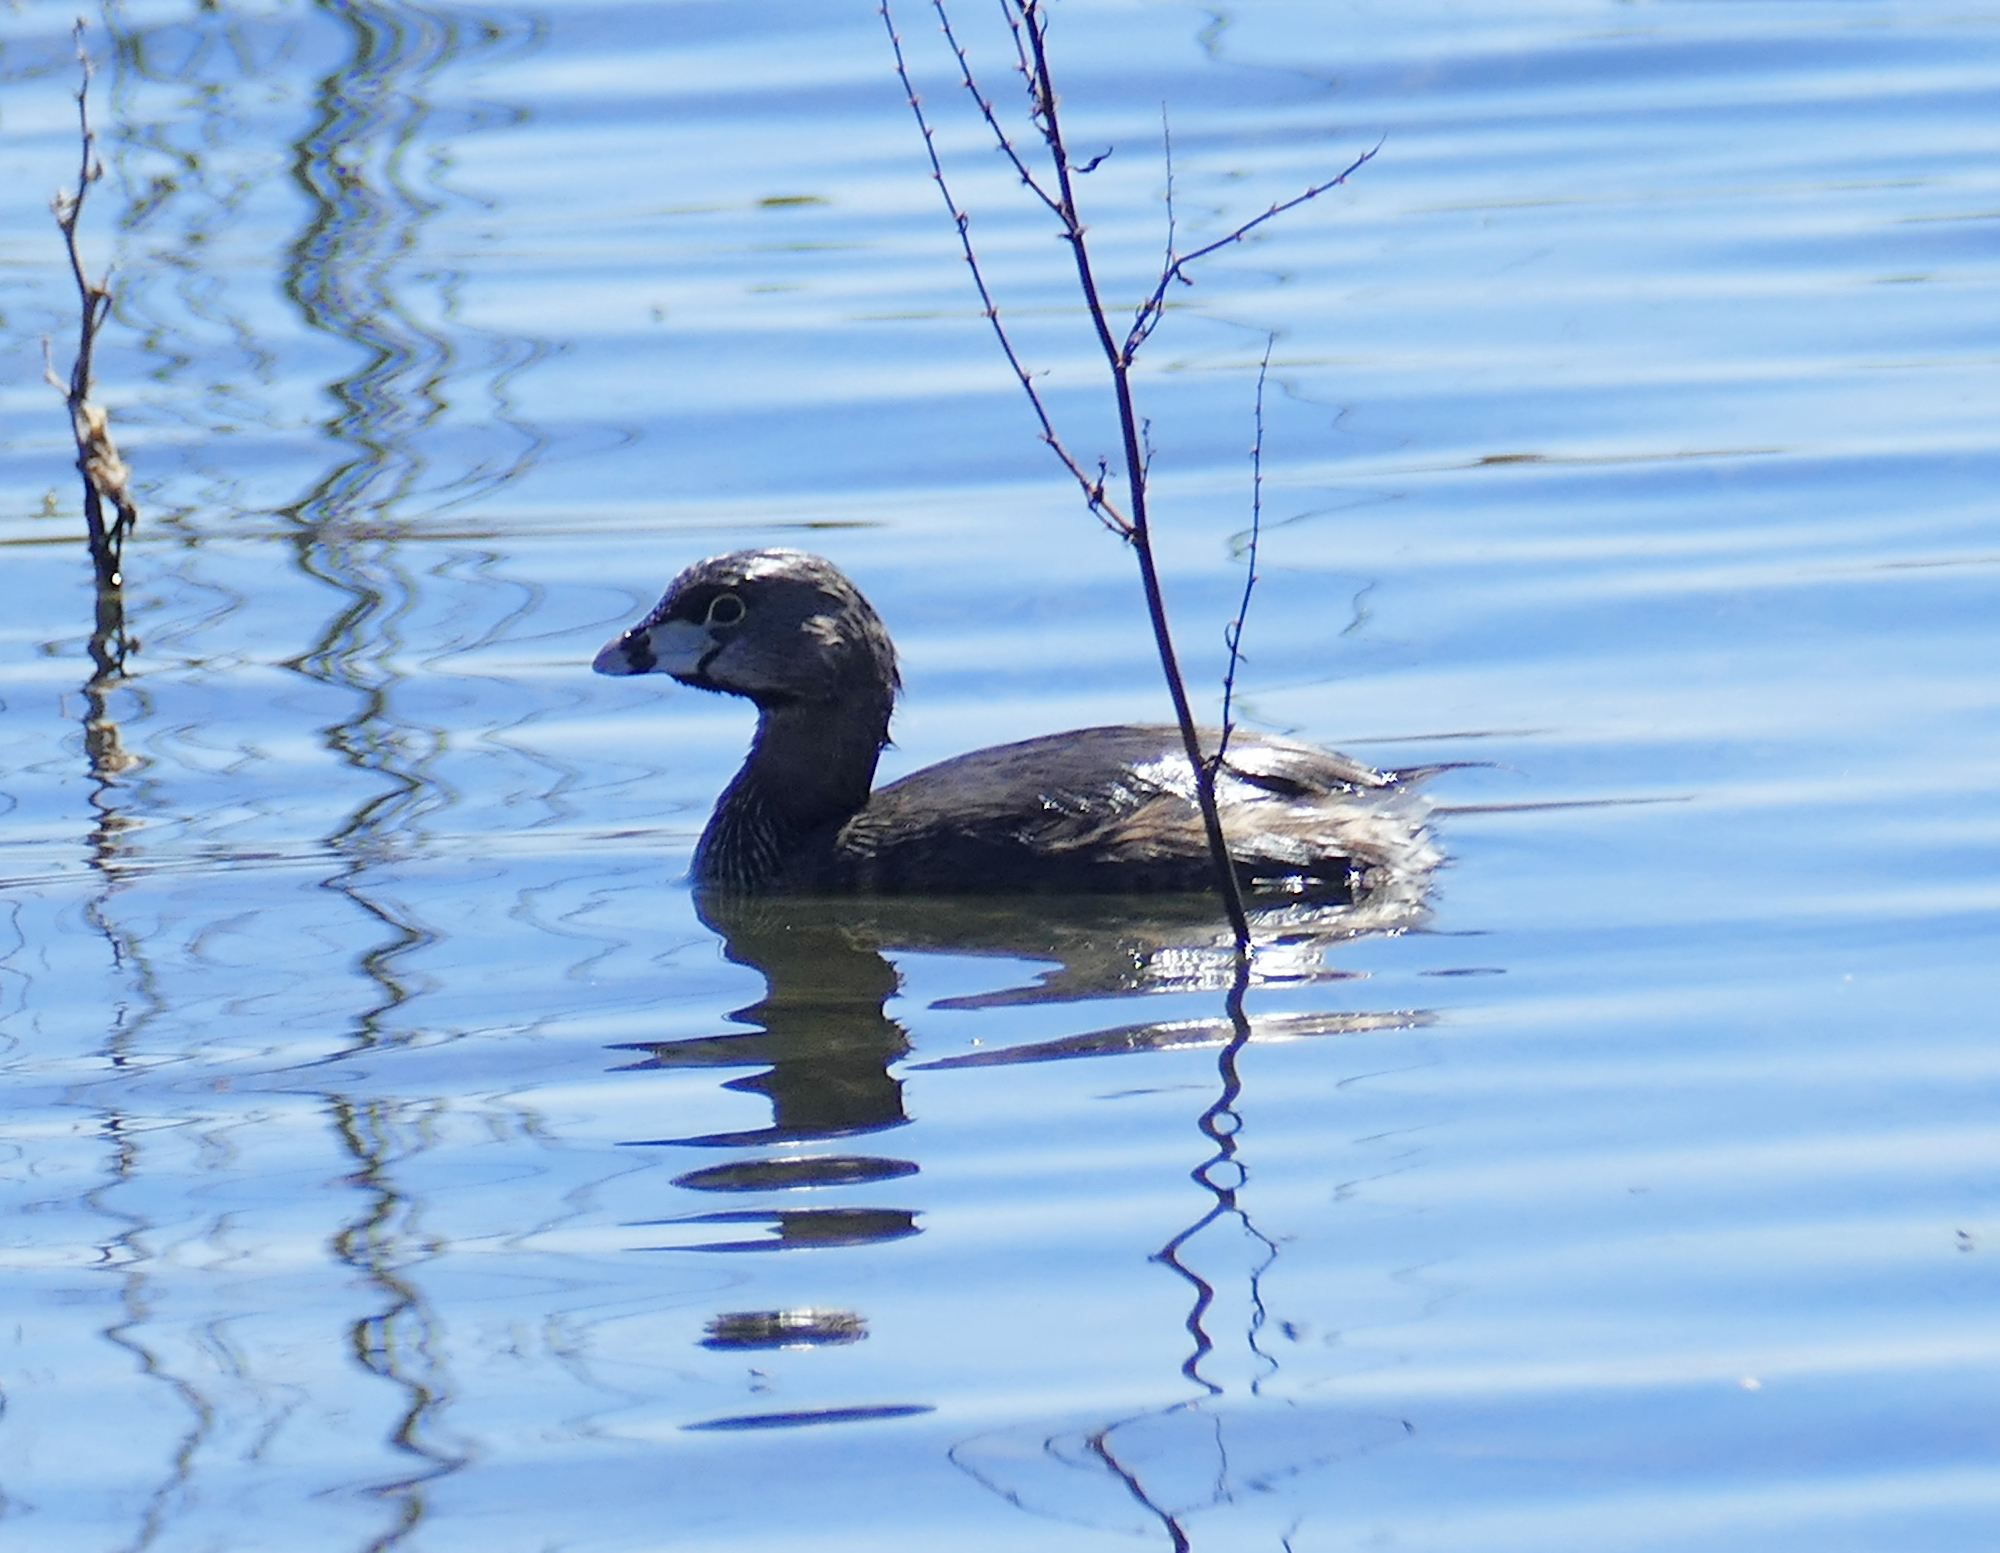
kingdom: Animalia
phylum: Chordata
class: Aves
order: Podicipediformes
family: Podicipedidae
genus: Podilymbus
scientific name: Podilymbus podiceps
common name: Pied-billed grebe
